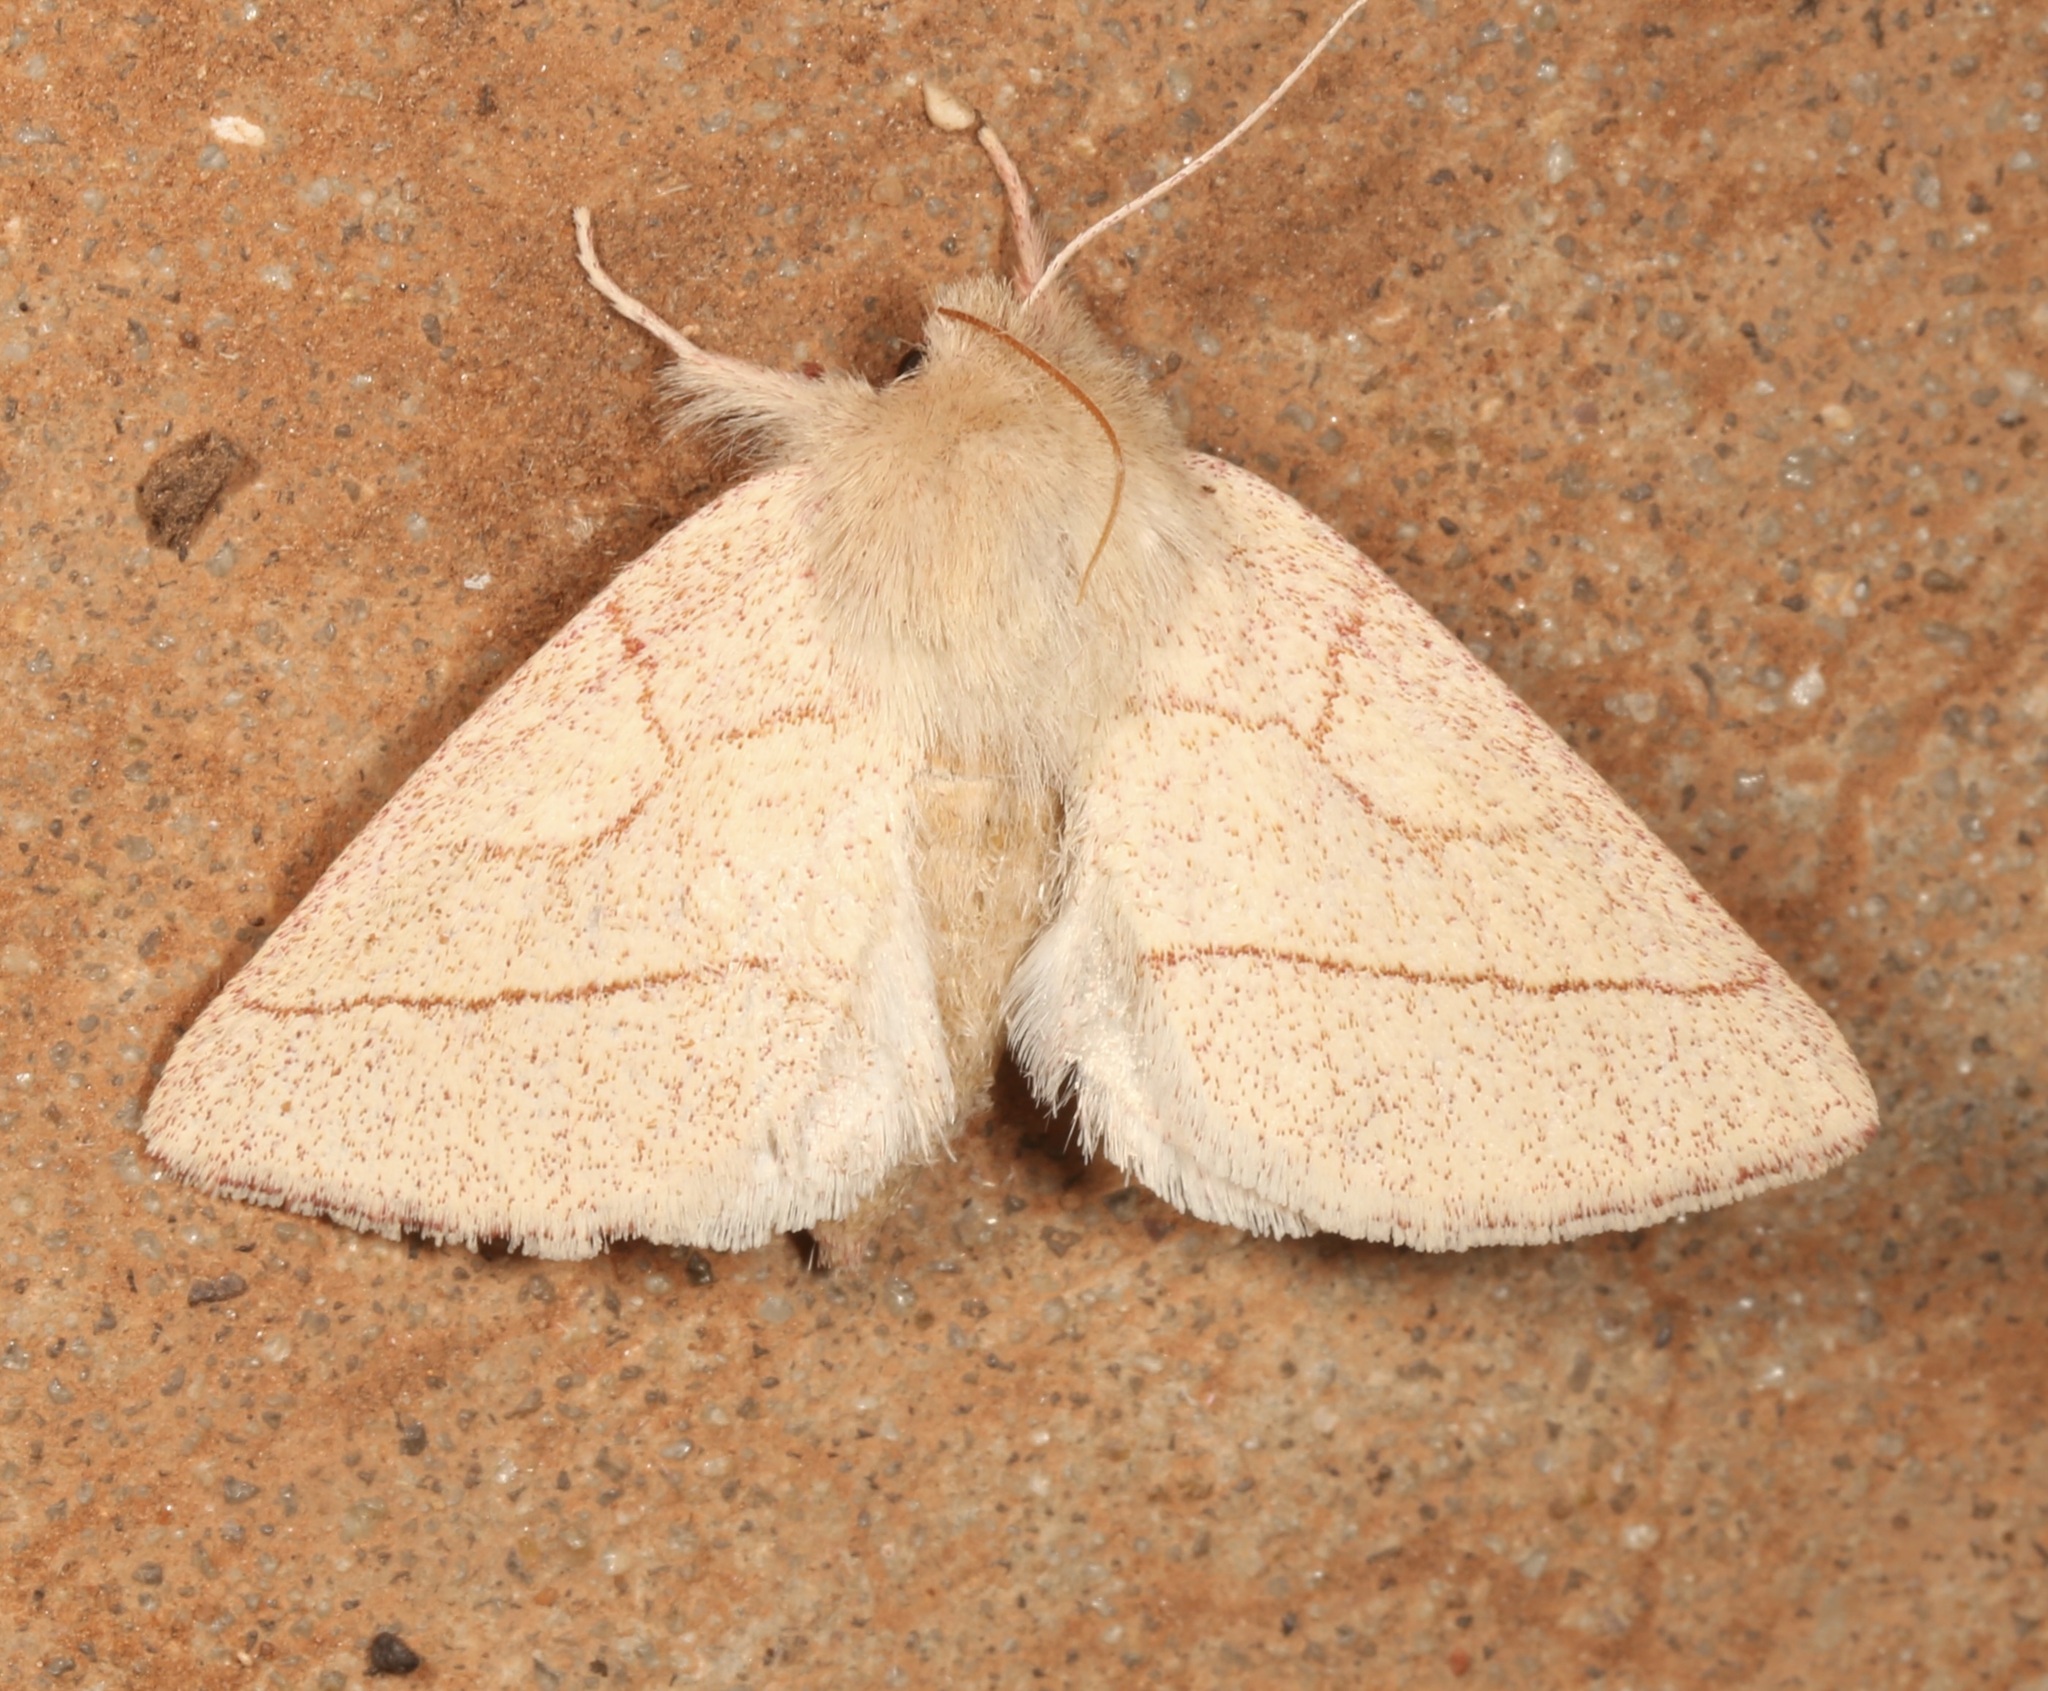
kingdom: Animalia
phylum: Arthropoda
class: Insecta
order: Lepidoptera
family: Notodontidae
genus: Hyparpax
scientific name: Hyparpax aurostriata
